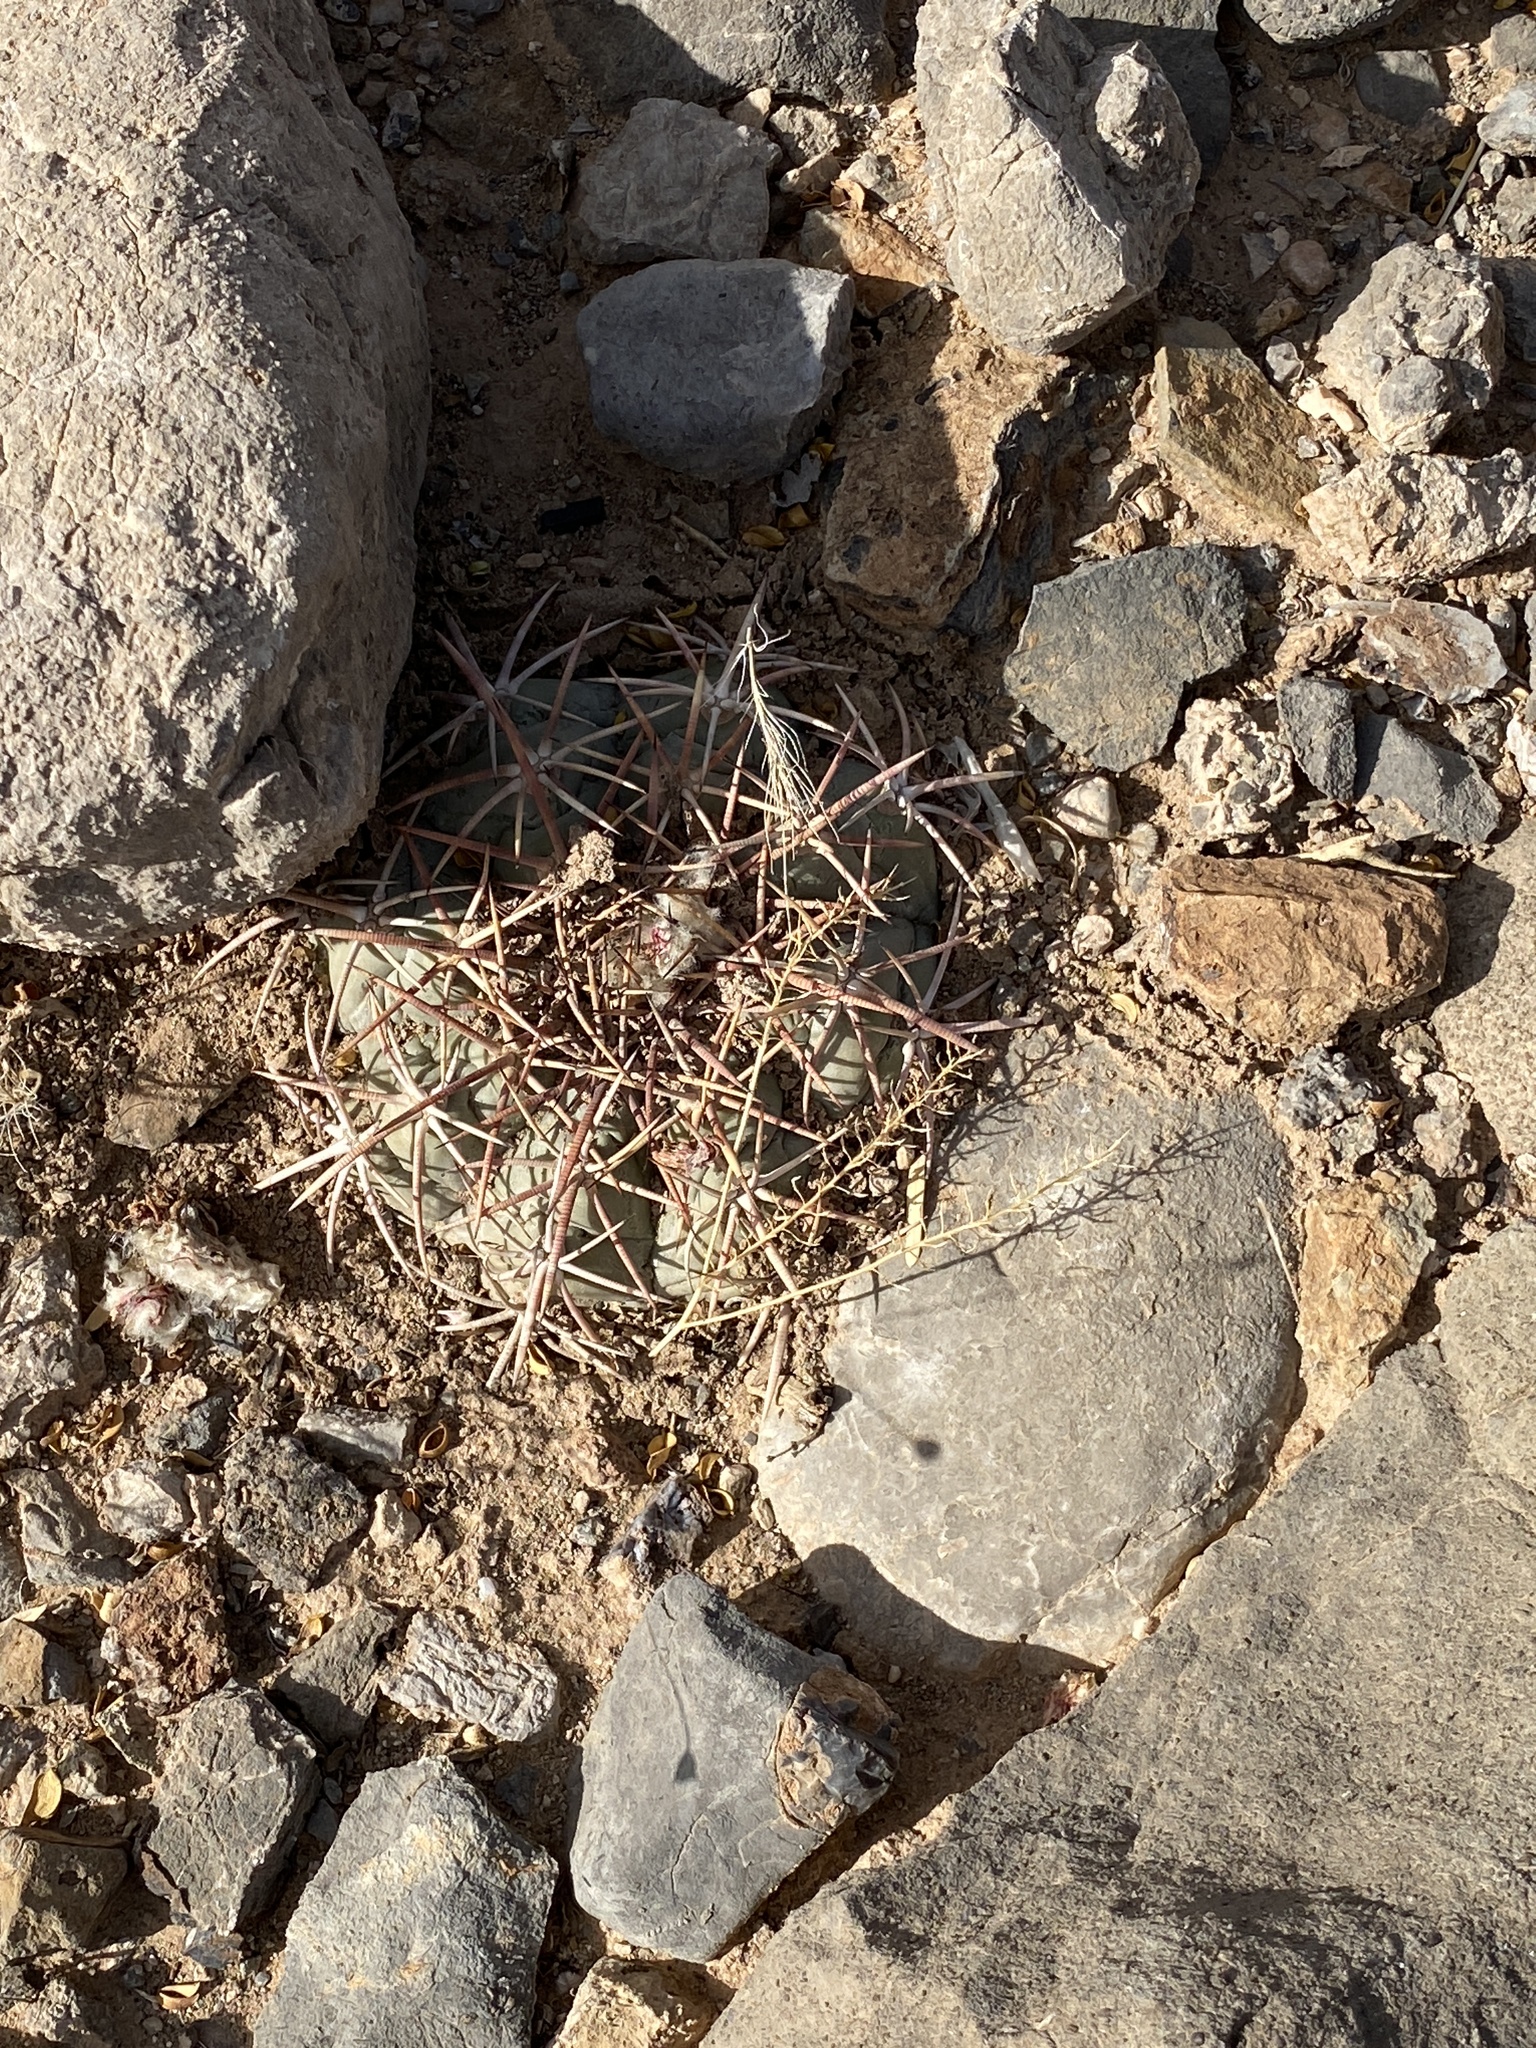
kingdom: Plantae
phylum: Tracheophyta
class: Magnoliopsida
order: Caryophyllales
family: Cactaceae
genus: Echinocactus
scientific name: Echinocactus horizonthalonius
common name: Devilshead
